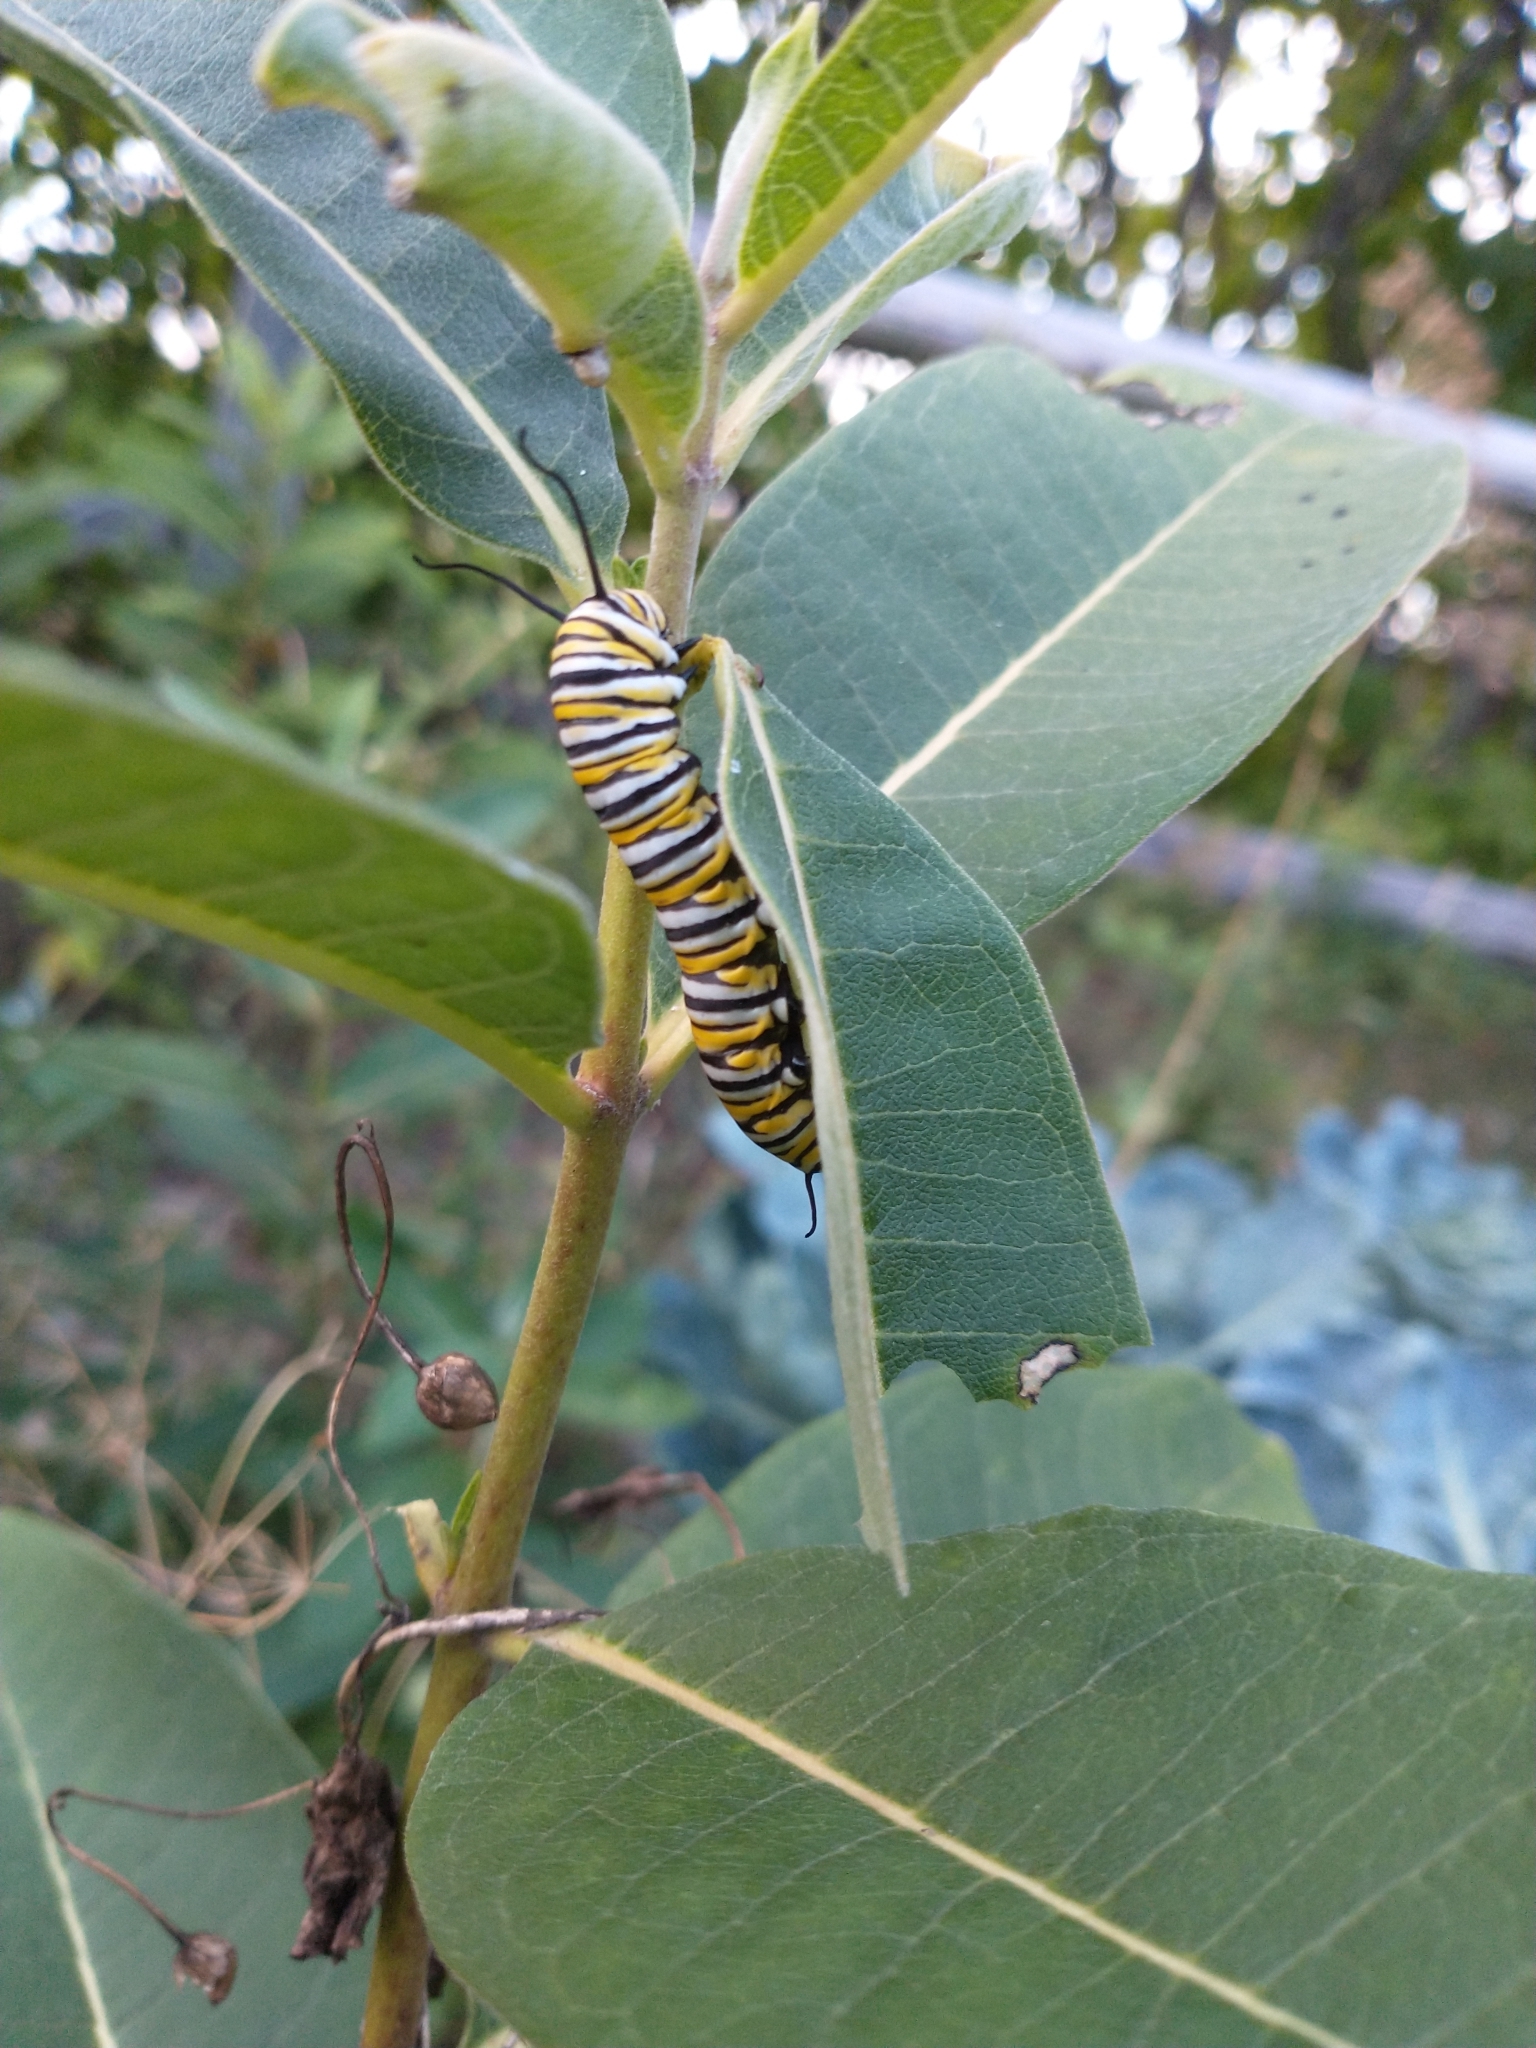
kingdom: Animalia
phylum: Arthropoda
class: Insecta
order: Lepidoptera
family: Nymphalidae
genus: Danaus
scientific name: Danaus plexippus
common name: Monarch
